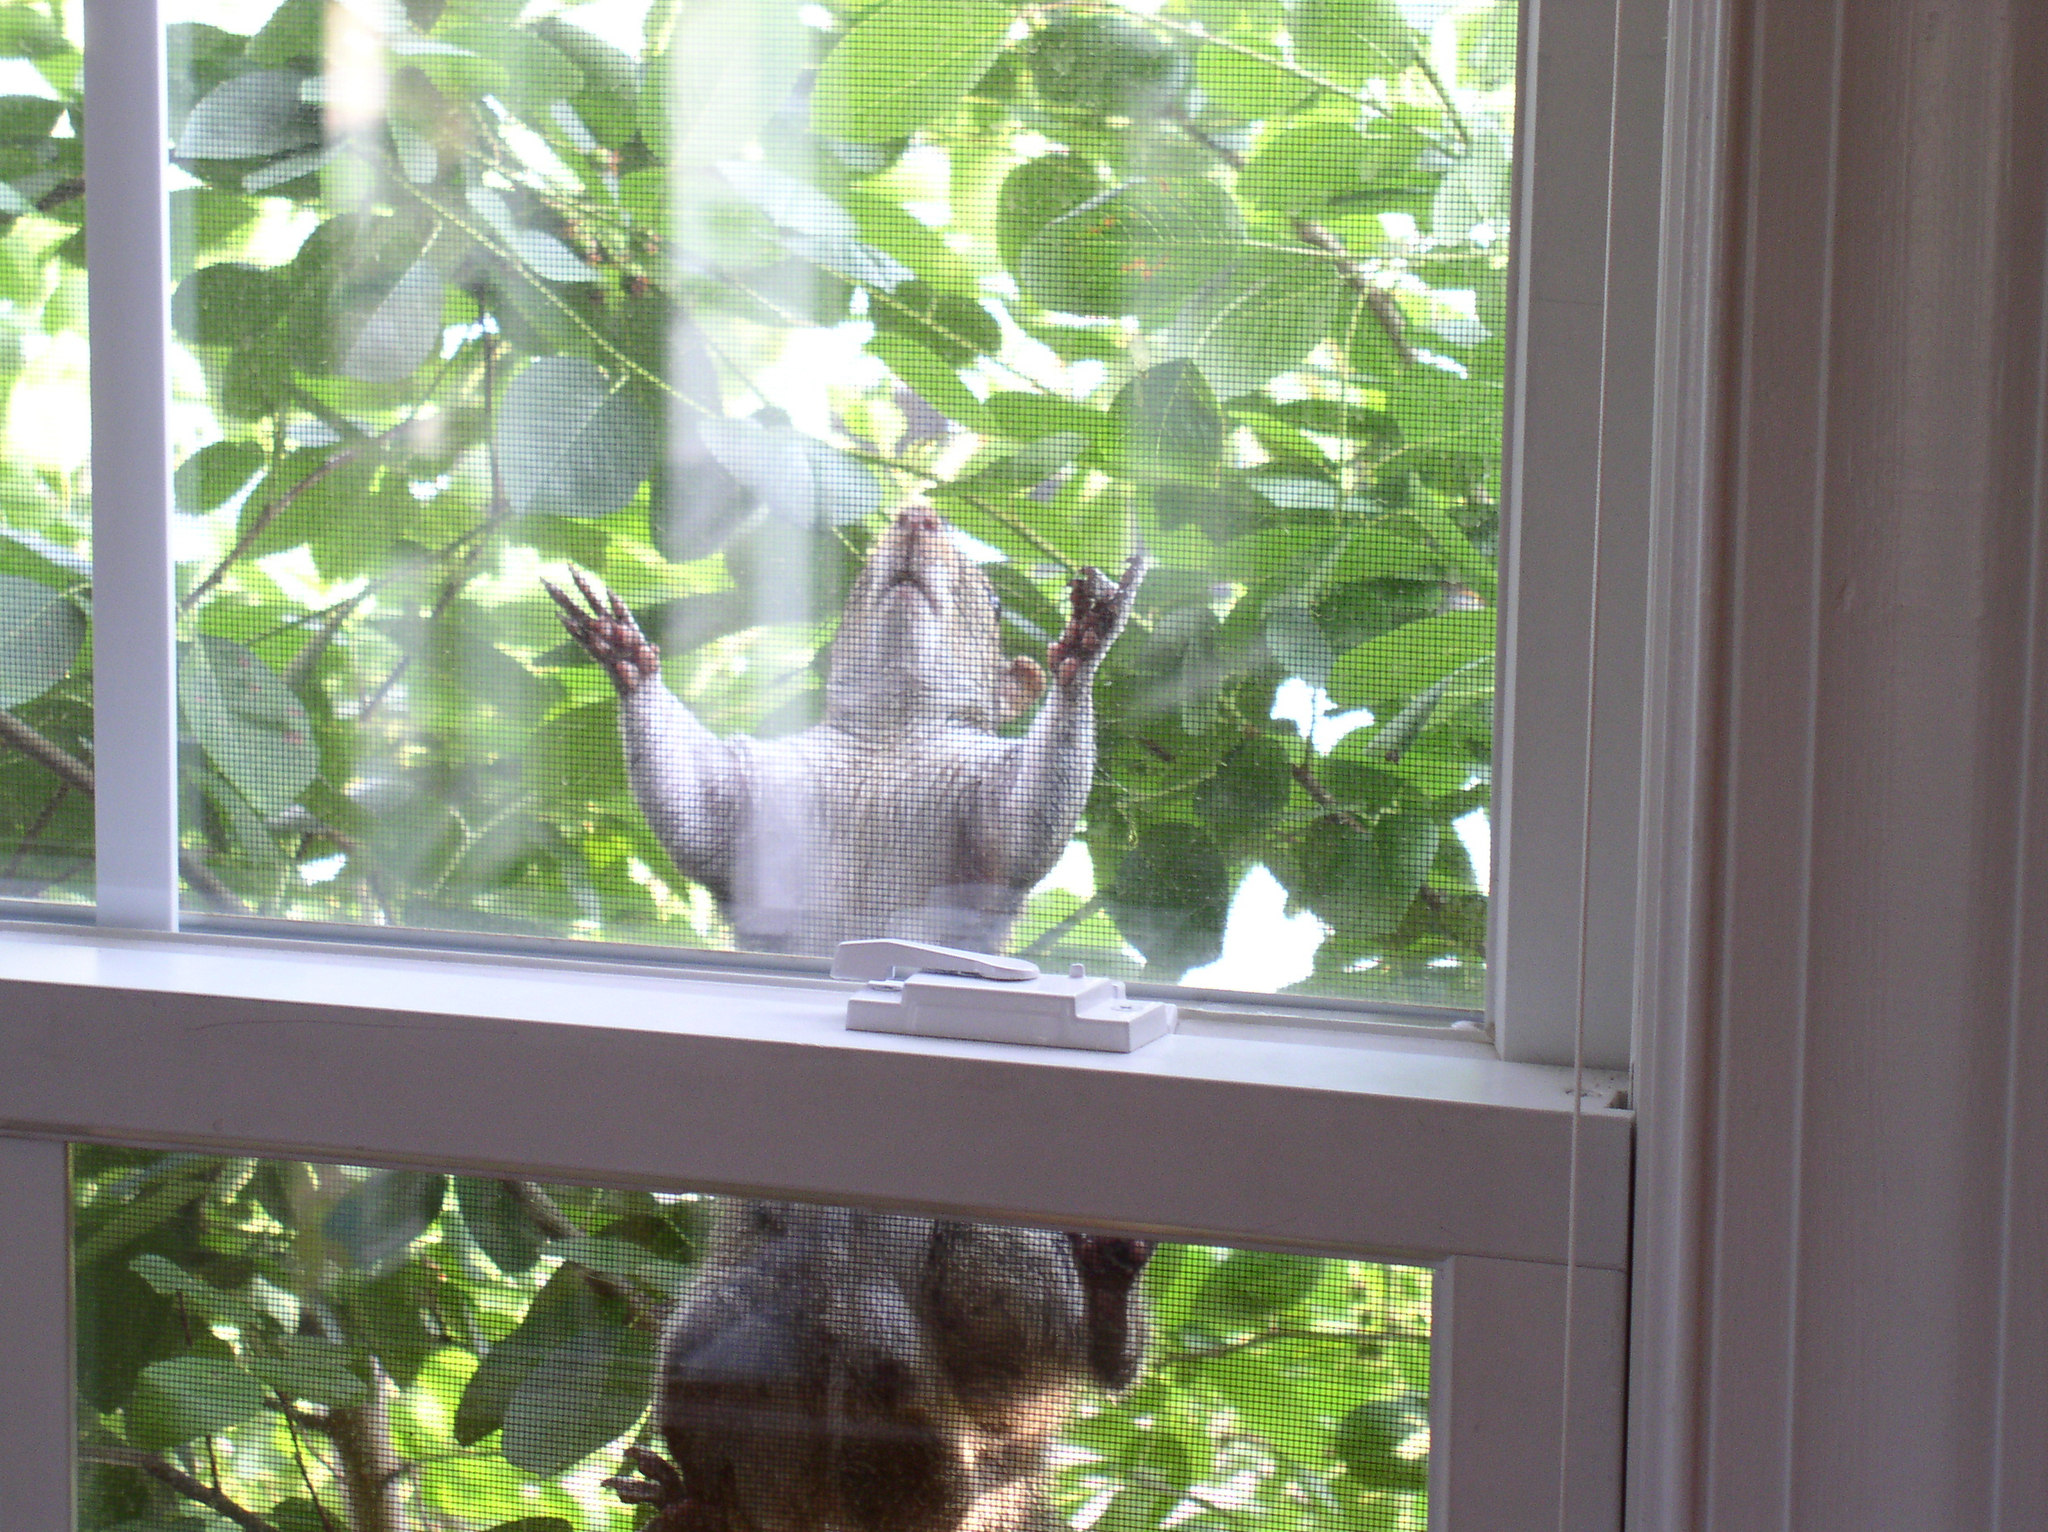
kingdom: Animalia
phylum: Chordata
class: Mammalia
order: Rodentia
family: Sciuridae
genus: Sciurus
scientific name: Sciurus carolinensis
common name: Eastern gray squirrel
